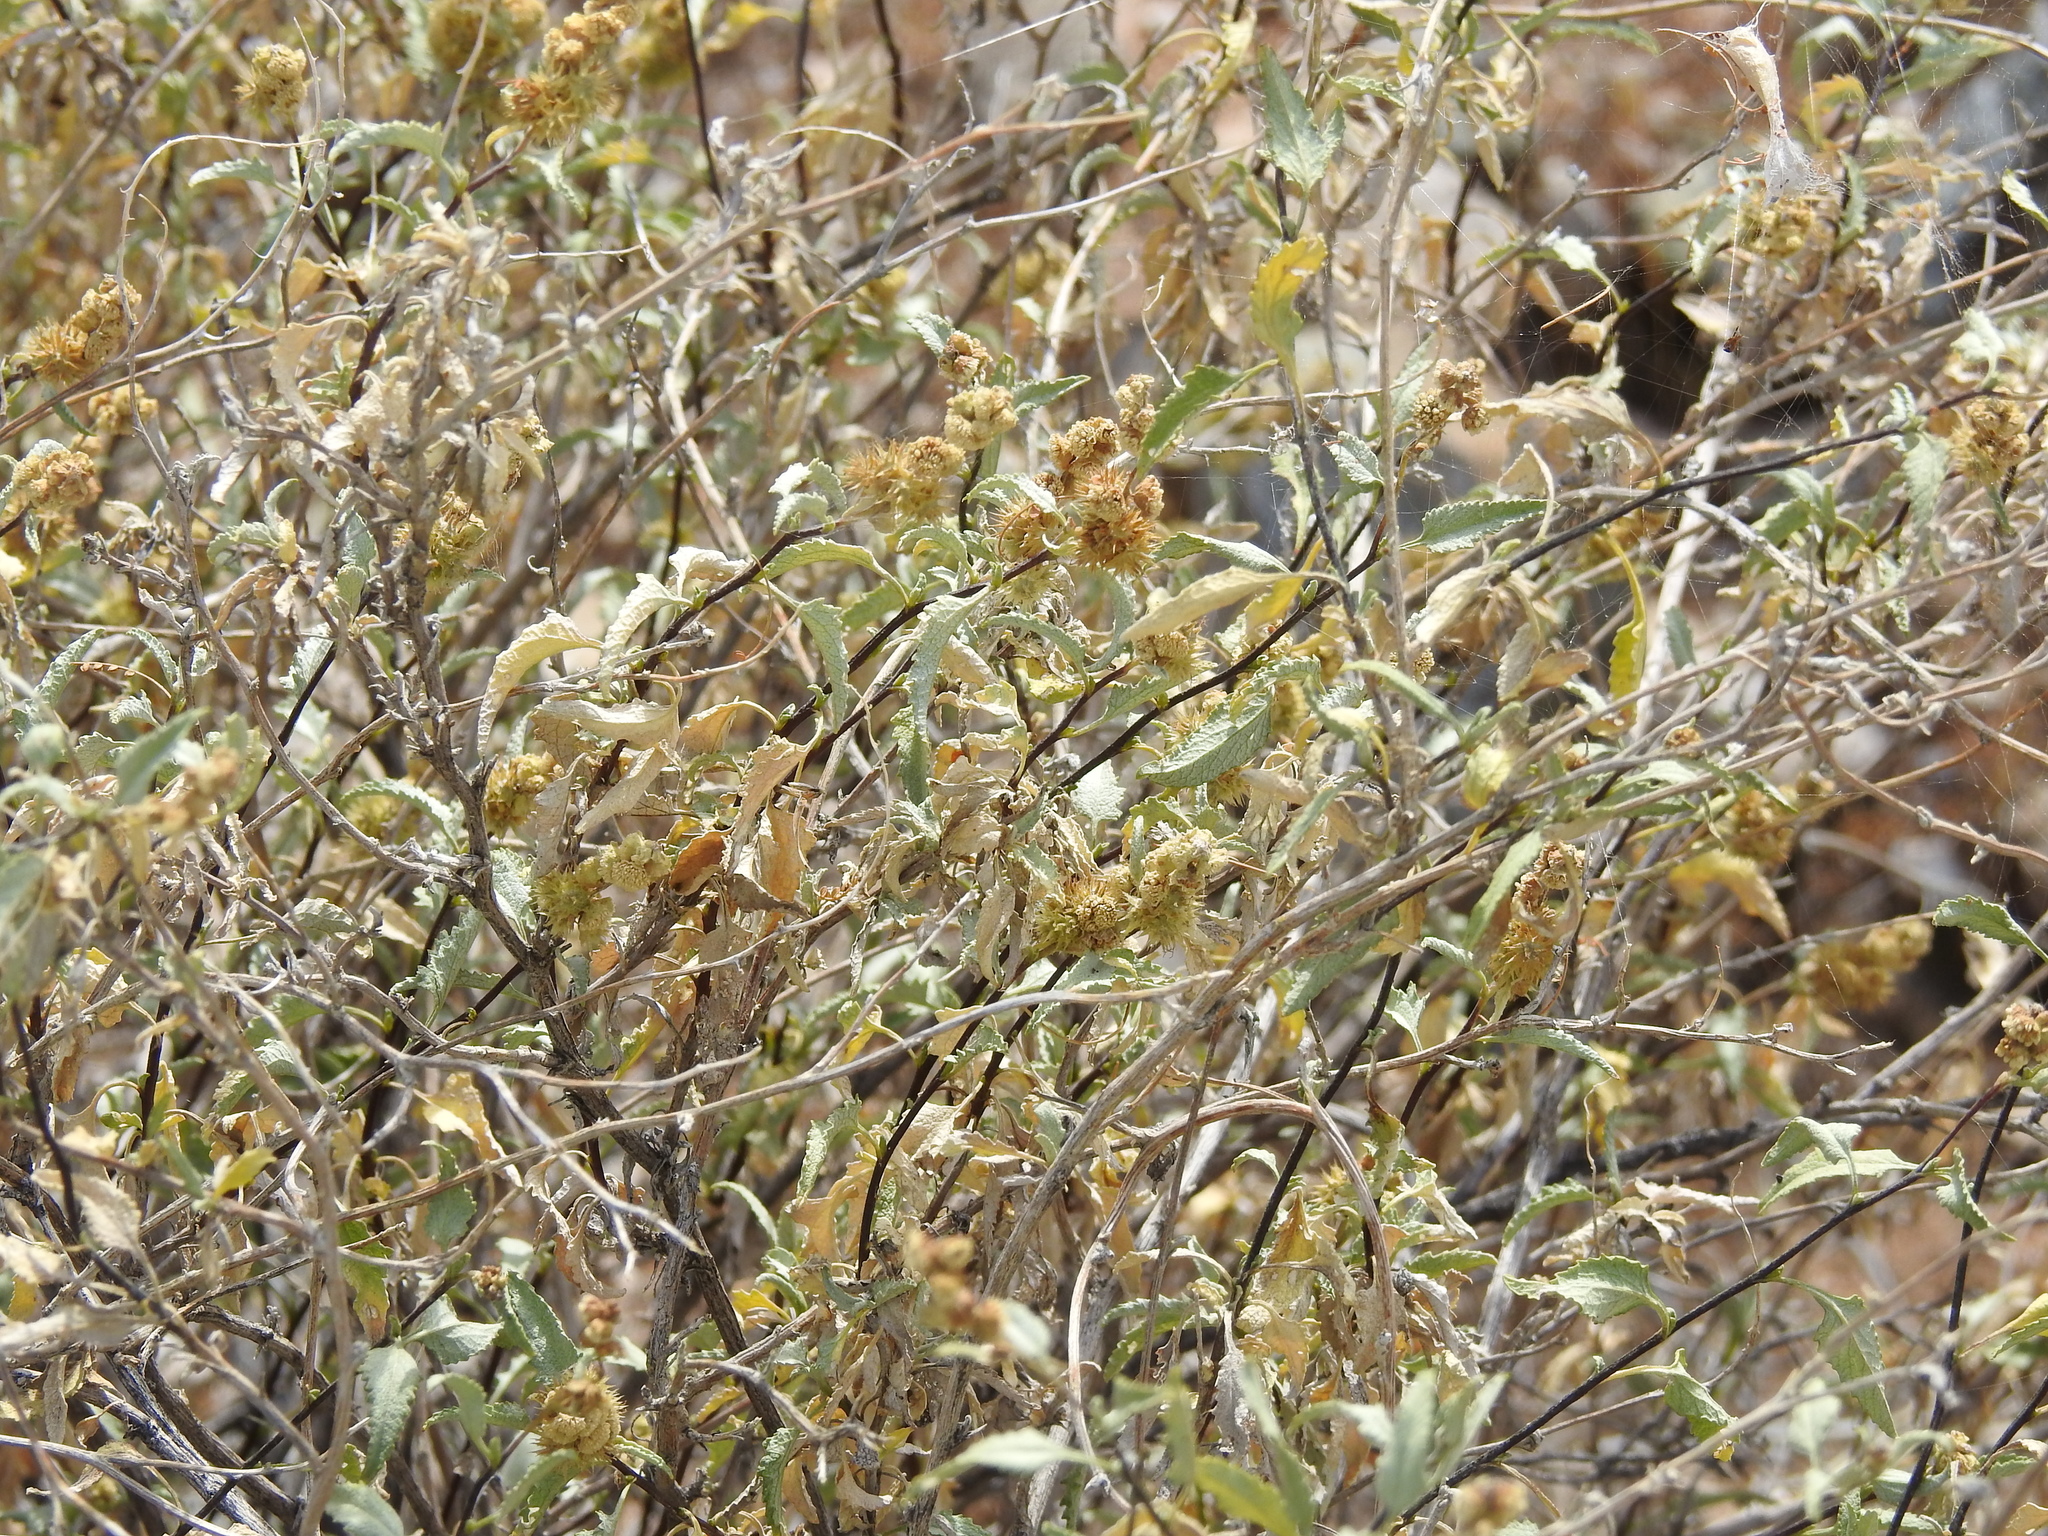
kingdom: Plantae
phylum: Tracheophyta
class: Magnoliopsida
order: Asterales
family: Asteraceae
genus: Ambrosia
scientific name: Ambrosia deltoidea
